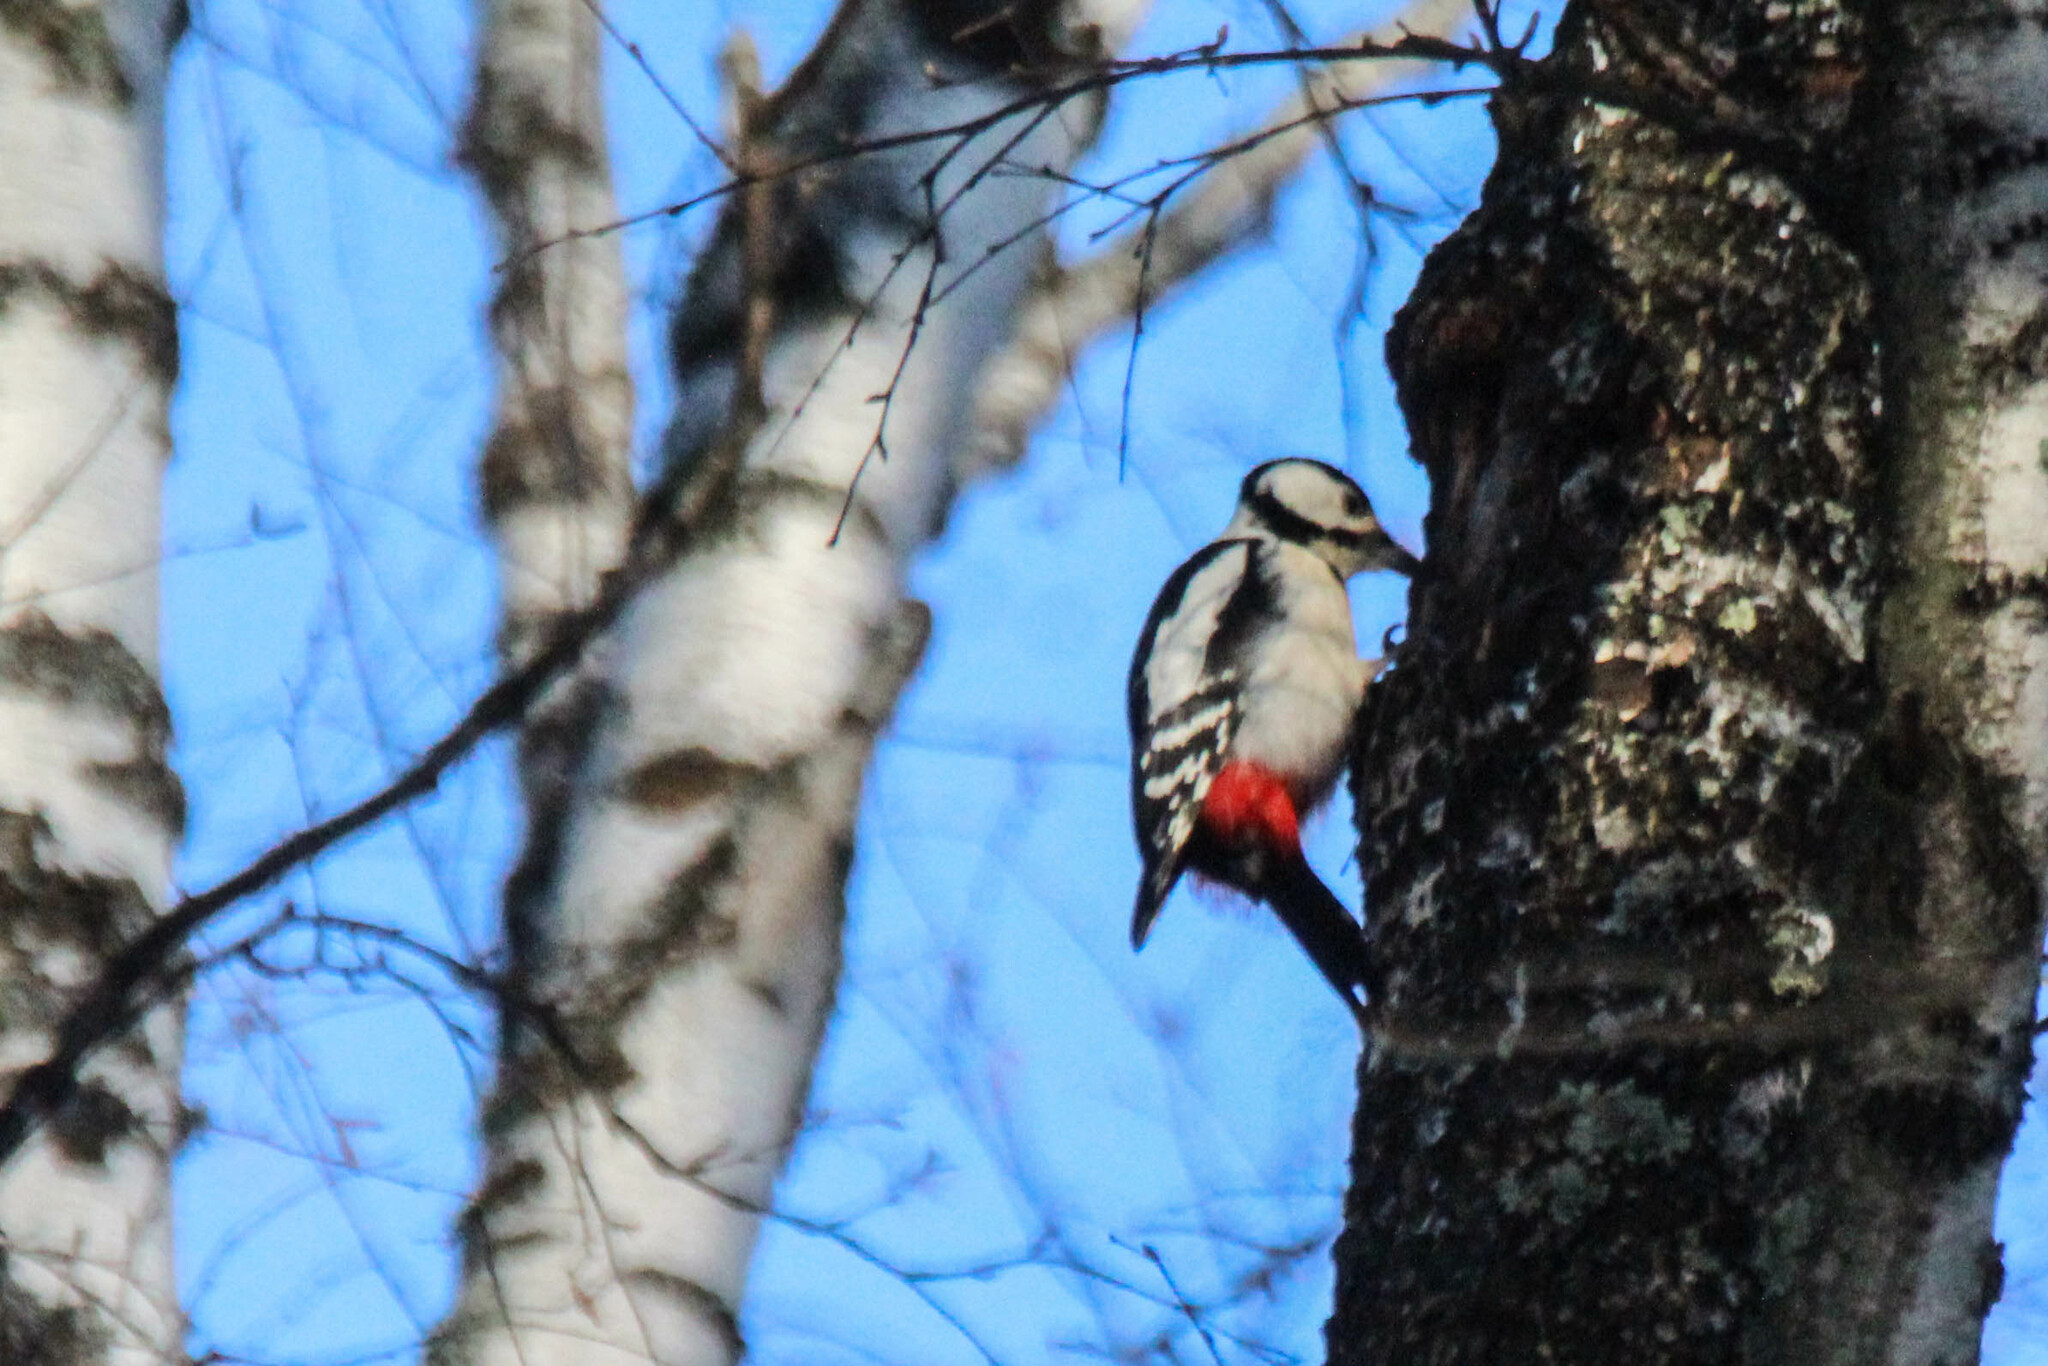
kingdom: Animalia
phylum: Chordata
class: Aves
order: Piciformes
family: Picidae
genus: Dendrocopos
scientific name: Dendrocopos major
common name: Great spotted woodpecker
